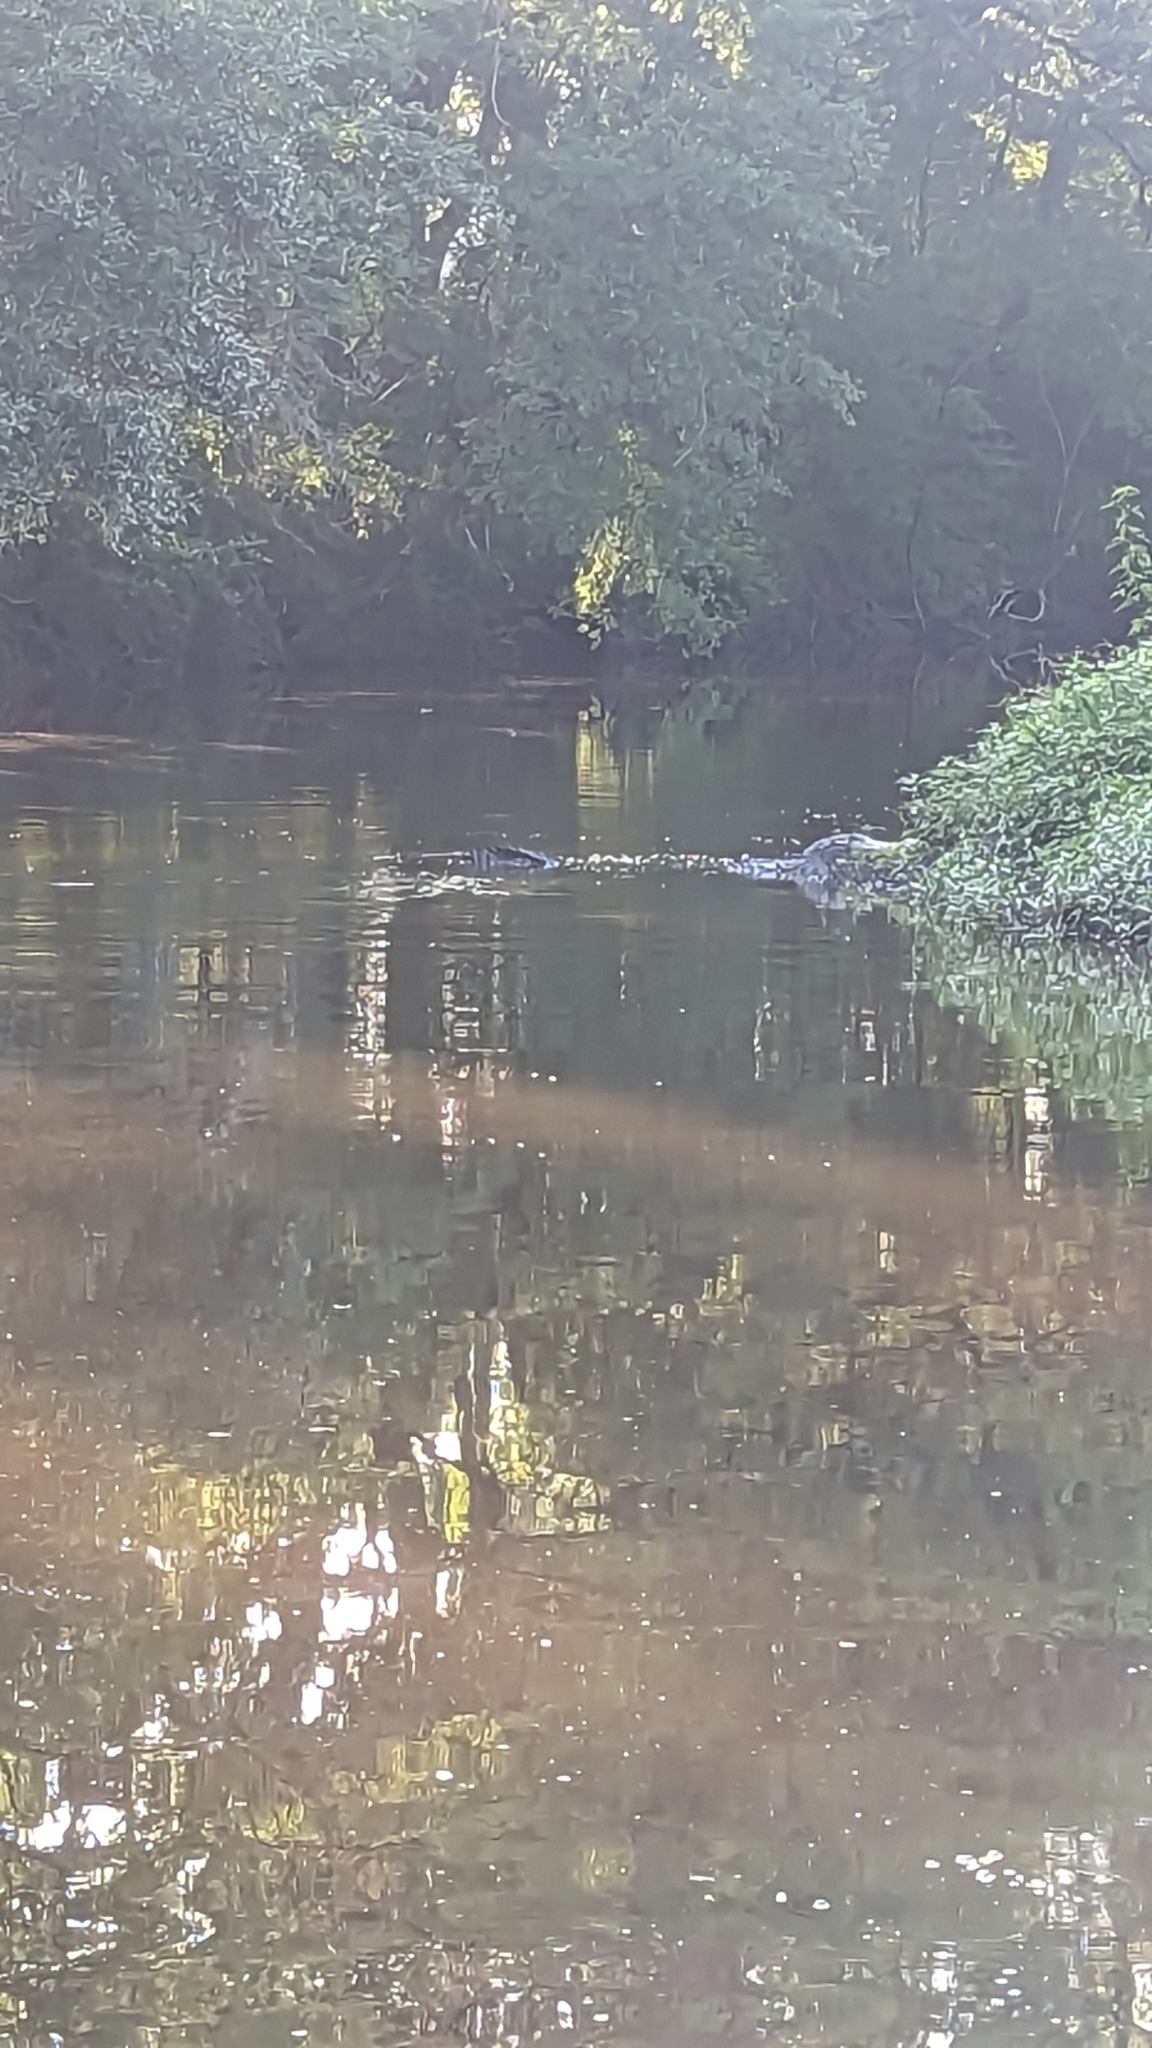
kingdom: Animalia
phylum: Chordata
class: Crocodylia
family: Alligatoridae
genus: Alligator
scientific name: Alligator mississippiensis
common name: American alligator
